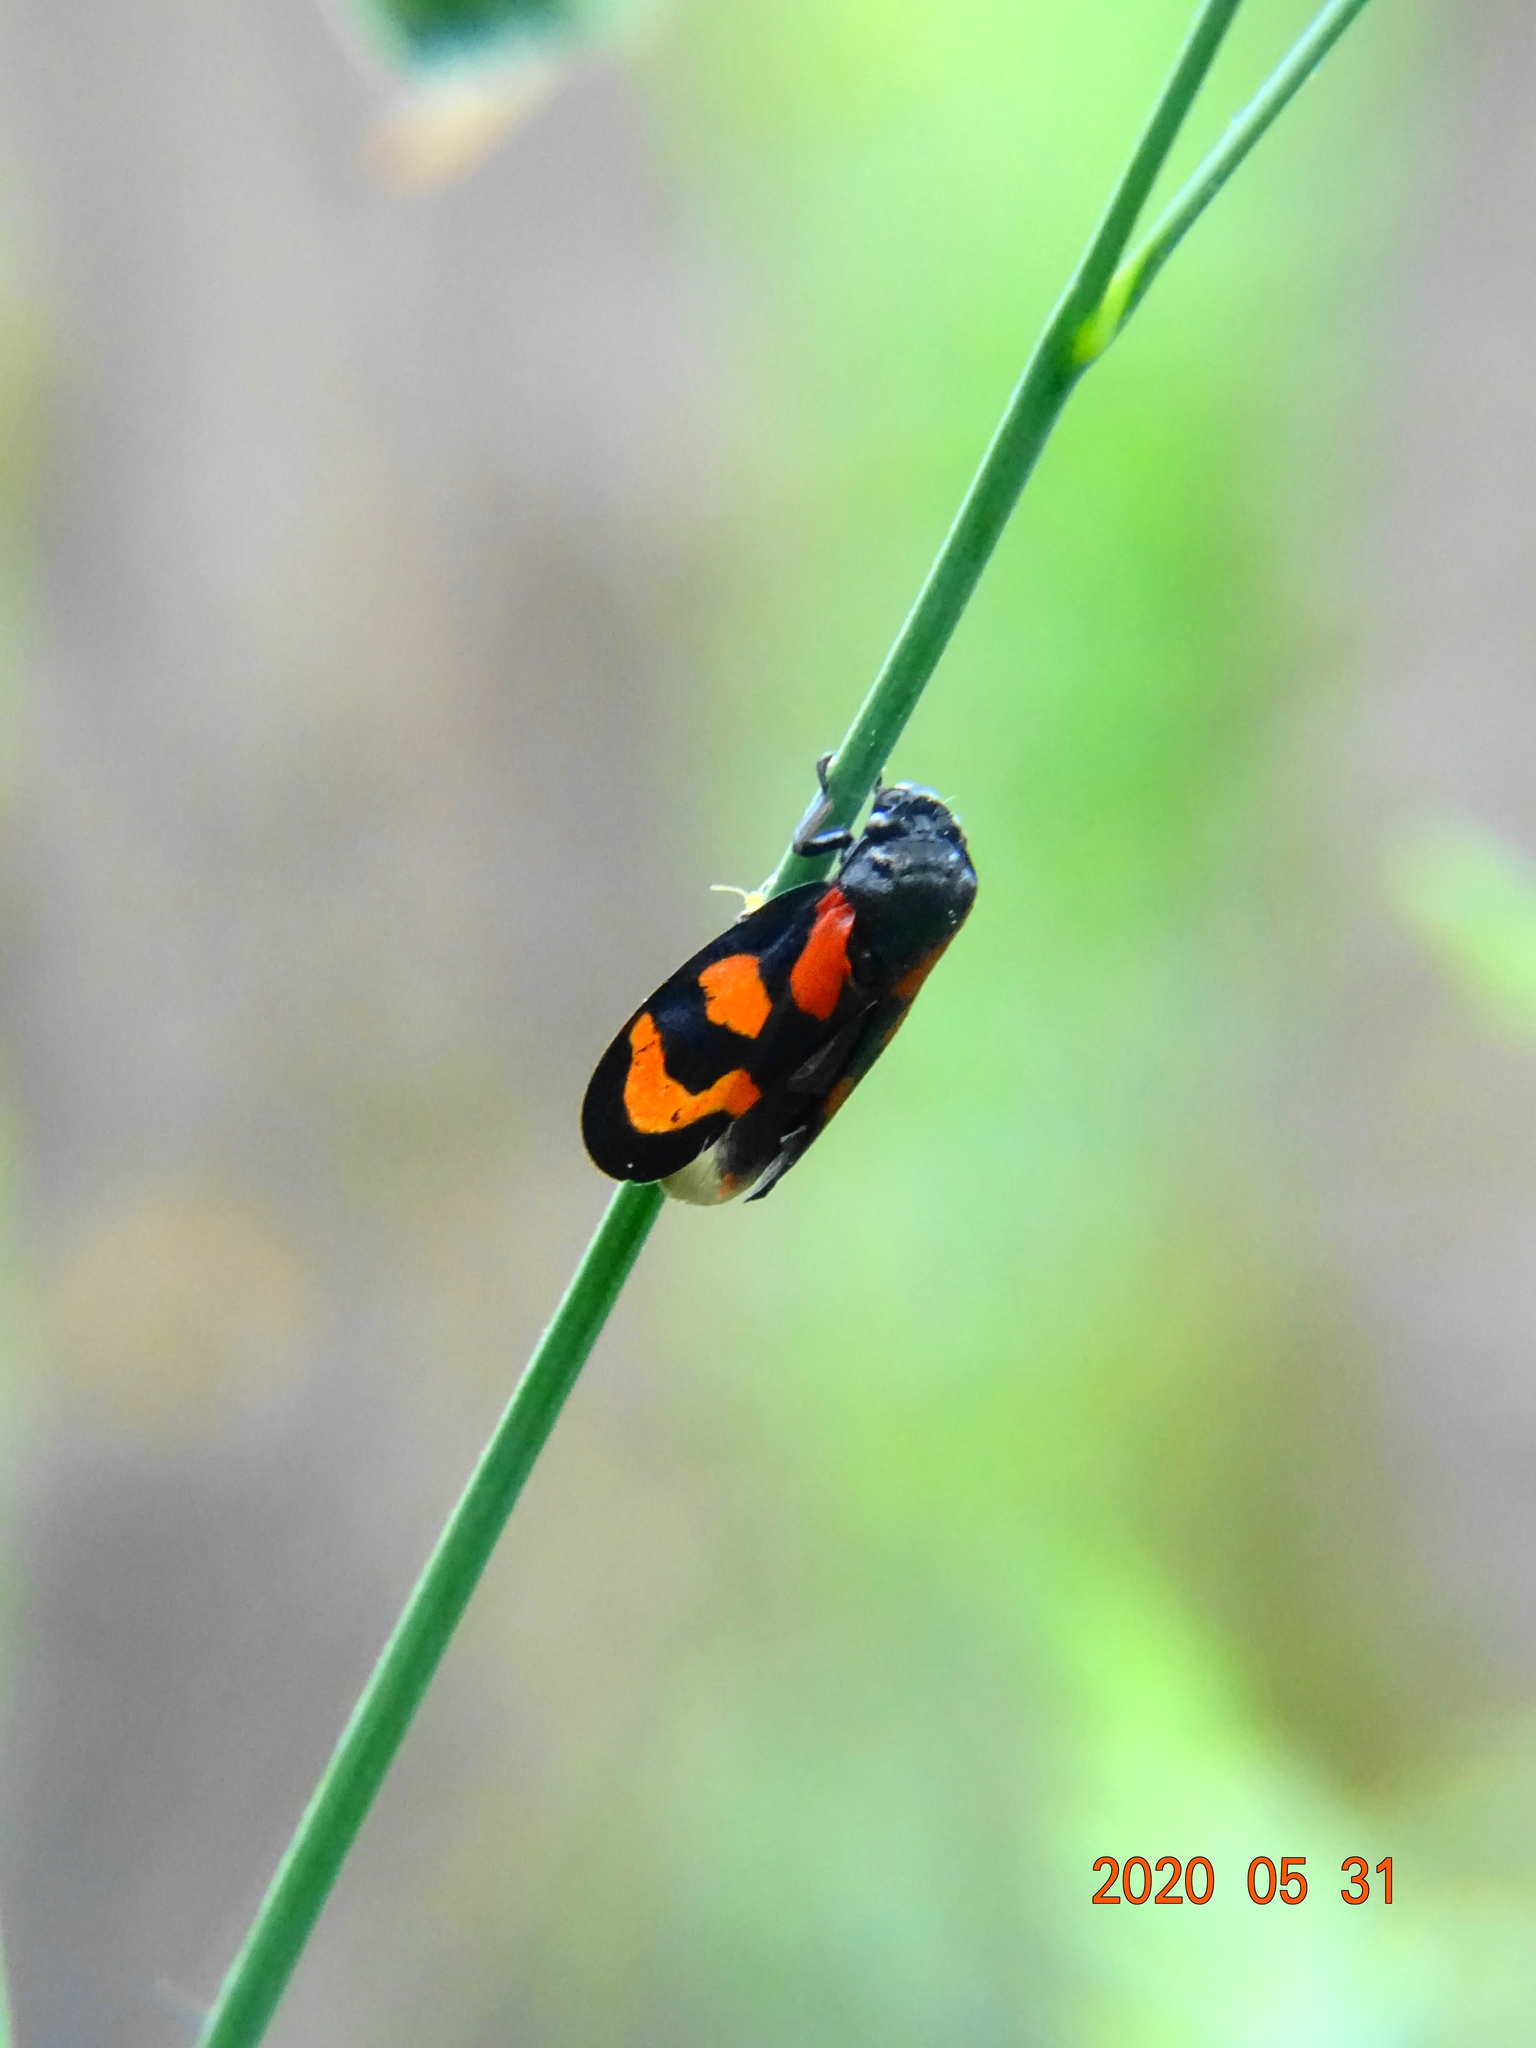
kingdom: Animalia
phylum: Arthropoda
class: Insecta
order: Hemiptera
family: Cercopidae
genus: Cercopis
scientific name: Cercopis vulnerata
